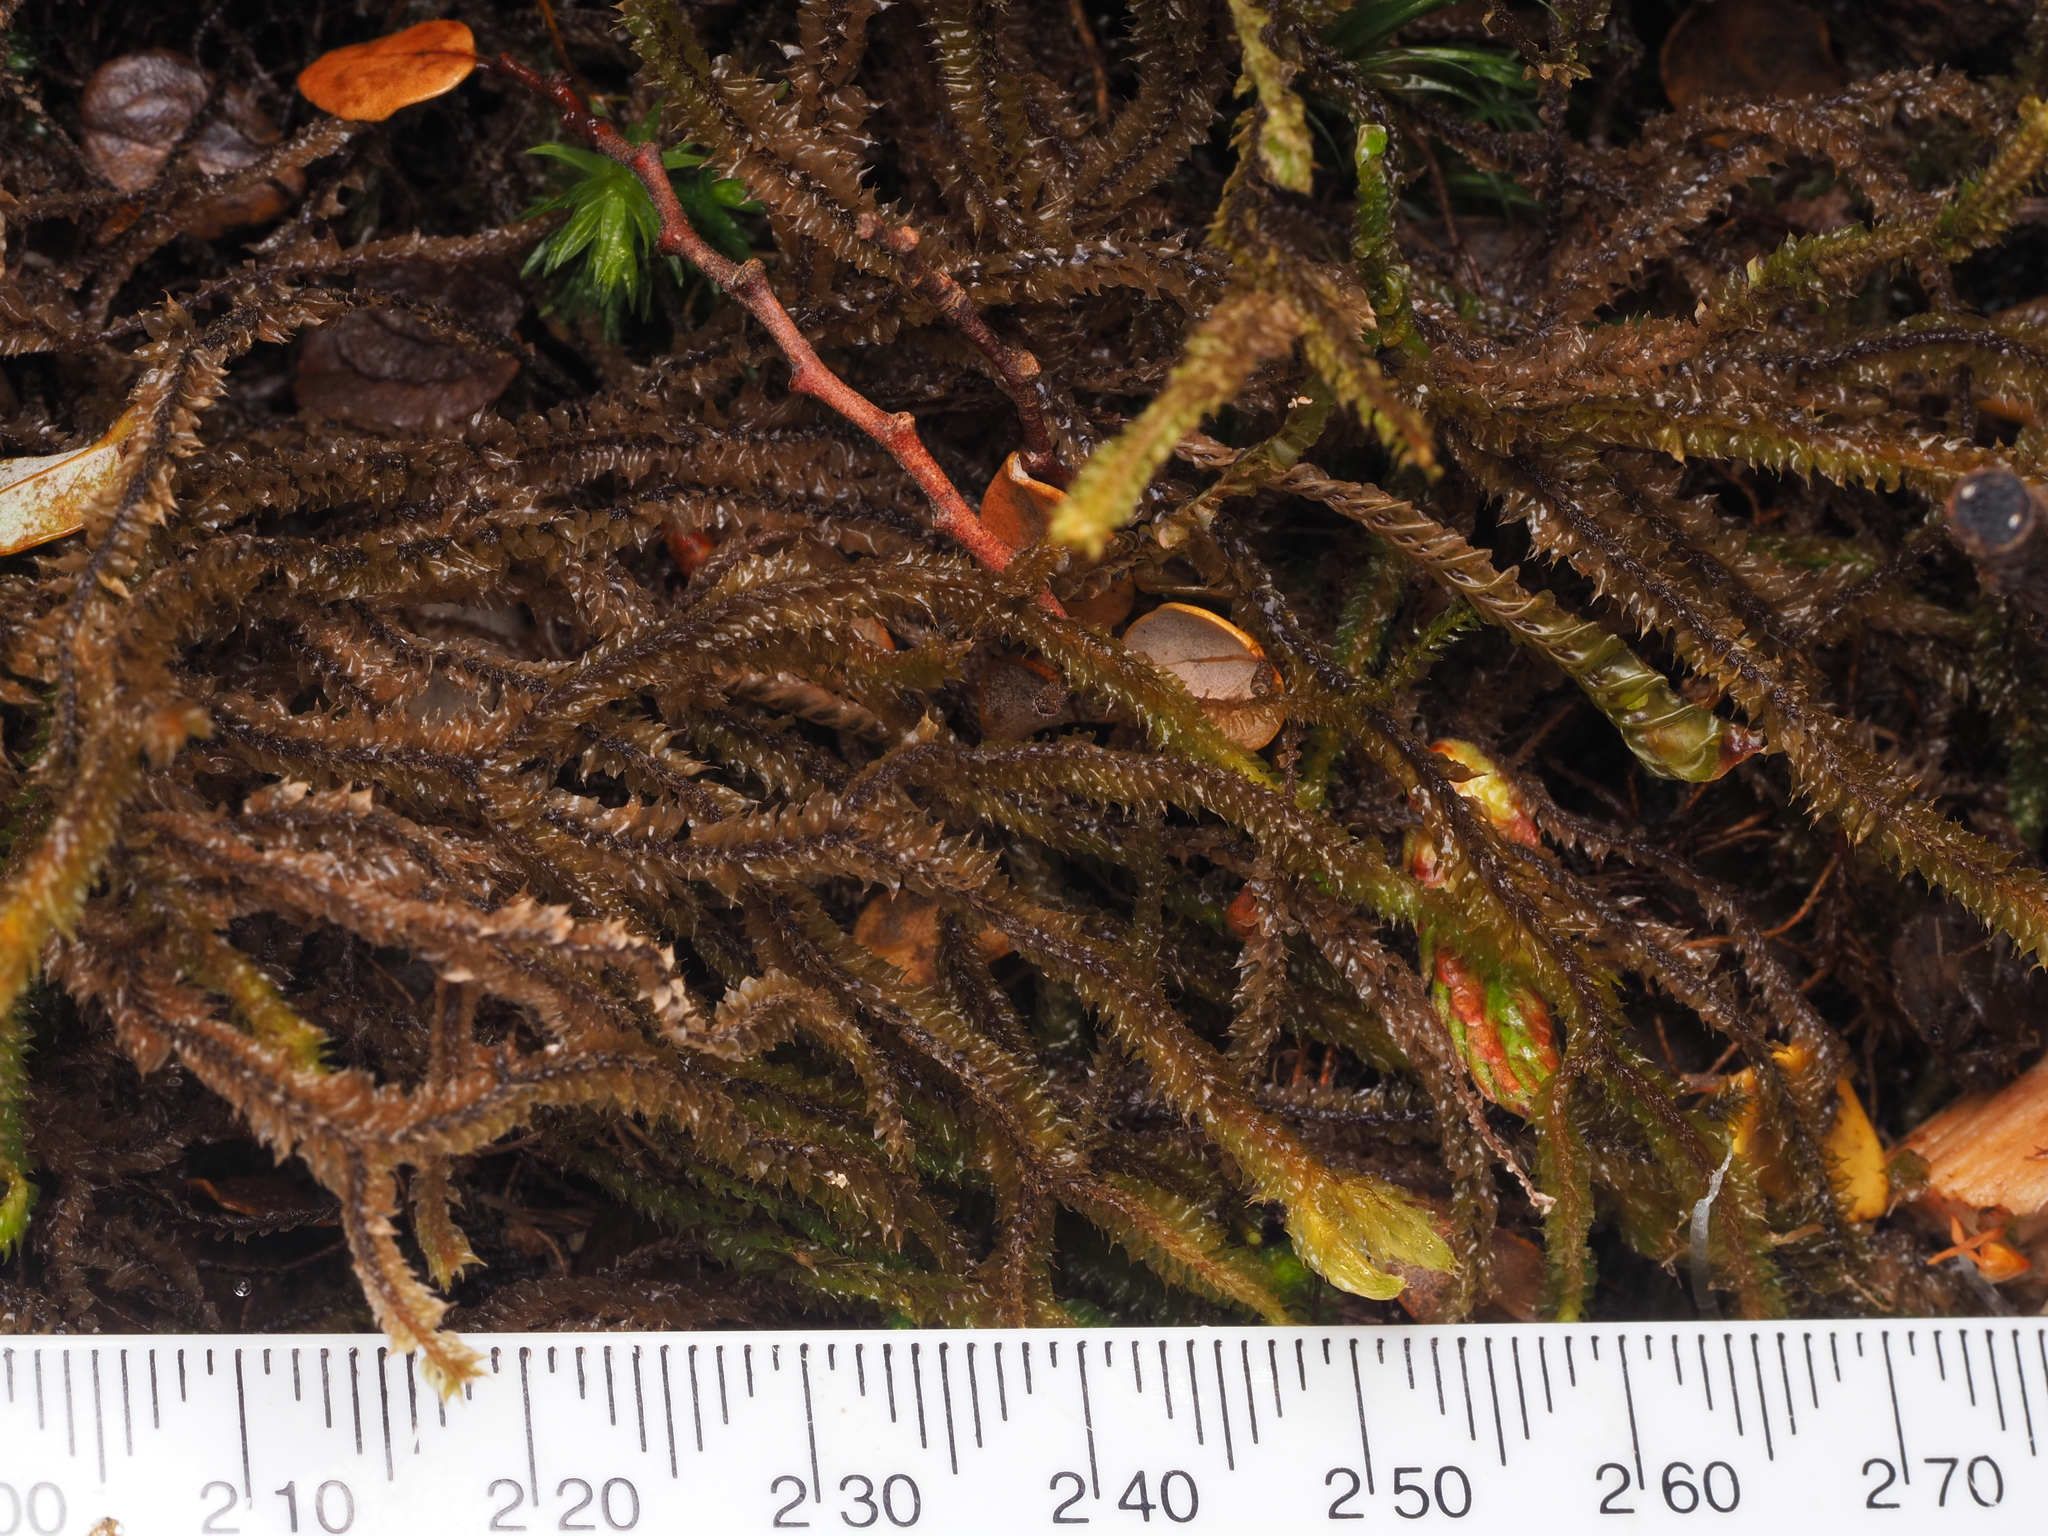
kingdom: Plantae
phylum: Marchantiophyta
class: Jungermanniopsida
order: Jungermanniales
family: Anastrophyllaceae
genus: Chandonanthus
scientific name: Chandonanthus squarrosus
